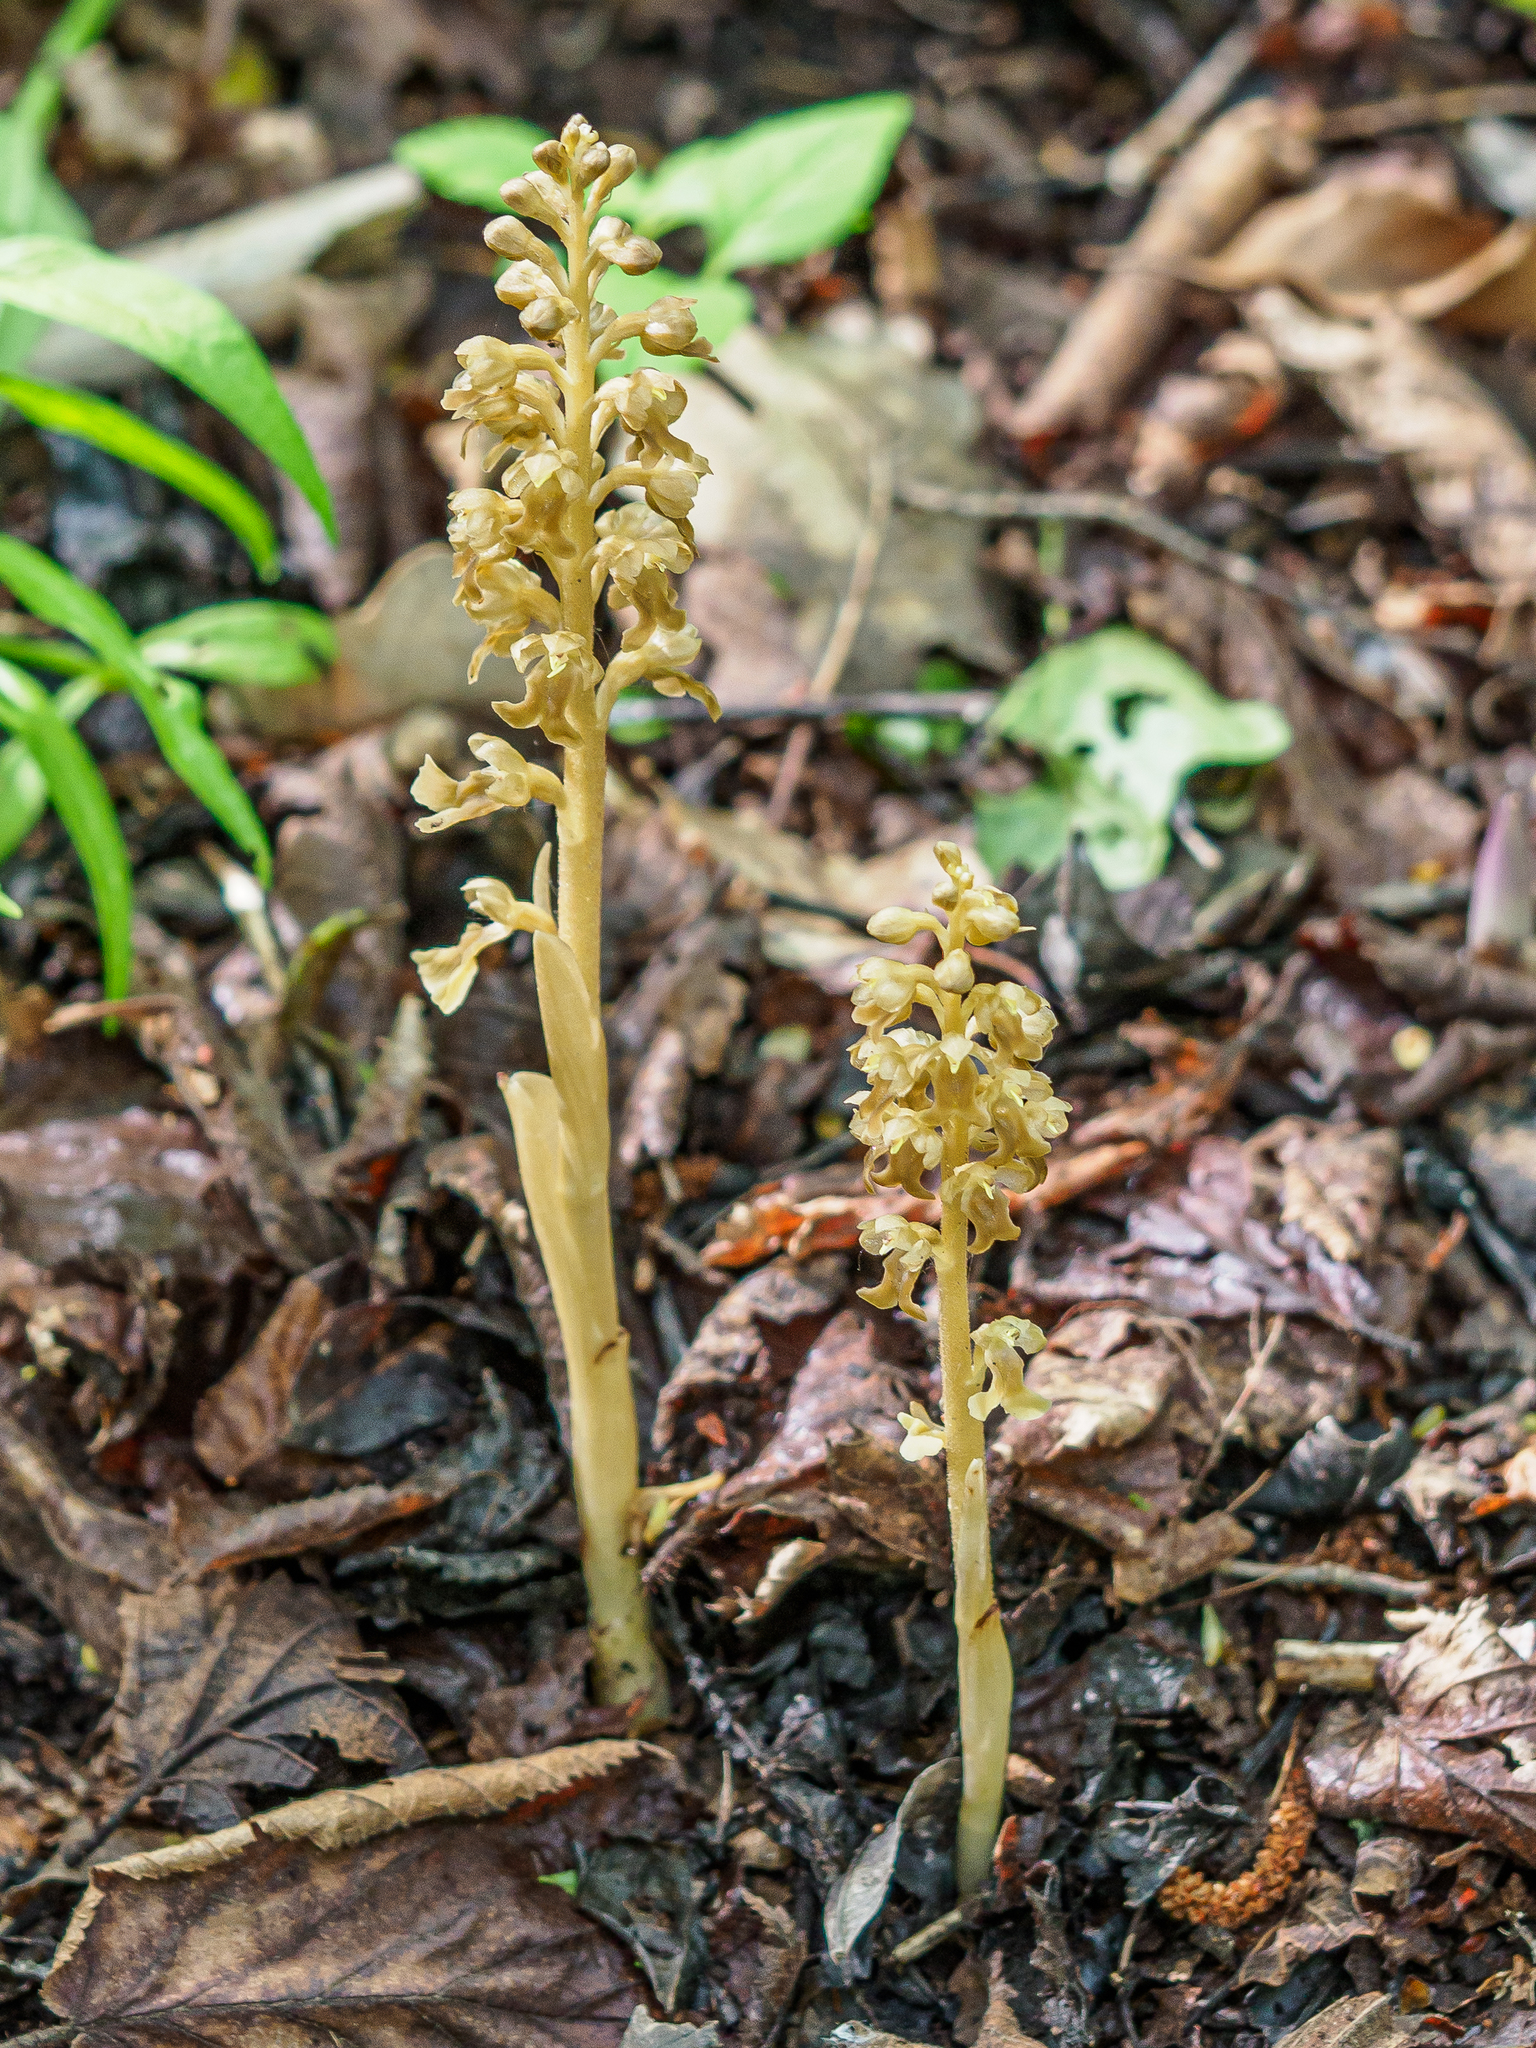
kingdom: Plantae
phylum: Tracheophyta
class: Liliopsida
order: Asparagales
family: Orchidaceae
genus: Neottia
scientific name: Neottia nidus-avis
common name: Bird's-nest orchid
